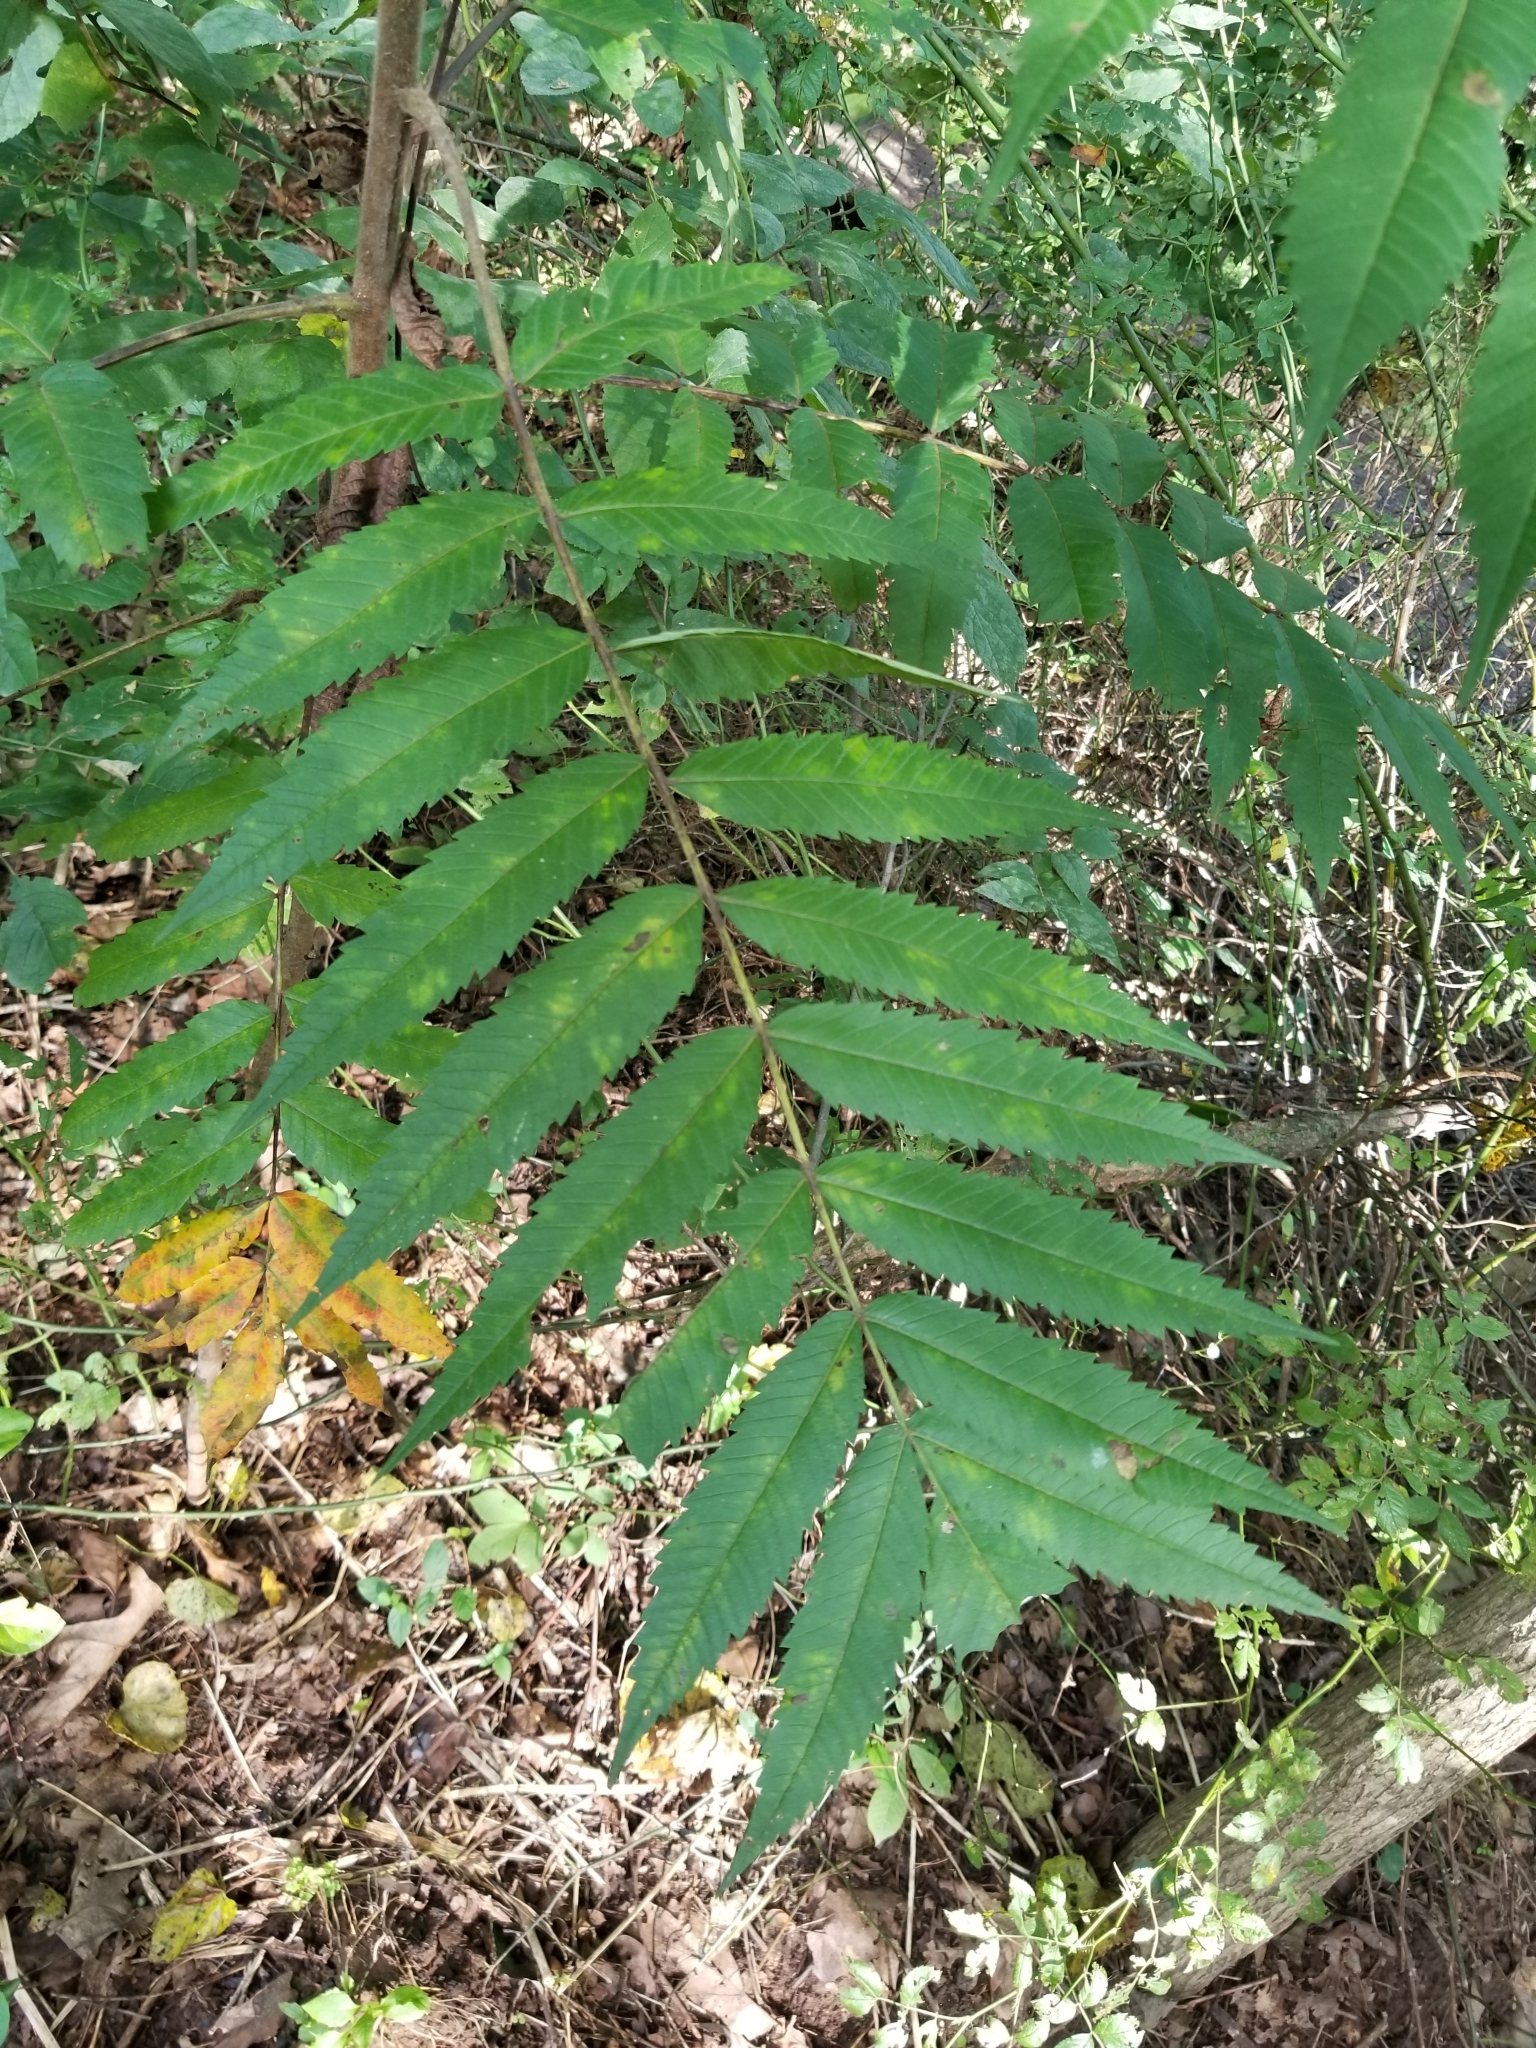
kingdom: Plantae
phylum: Tracheophyta
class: Magnoliopsida
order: Sapindales
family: Anacardiaceae
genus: Rhus
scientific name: Rhus typhina
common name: Staghorn sumac
